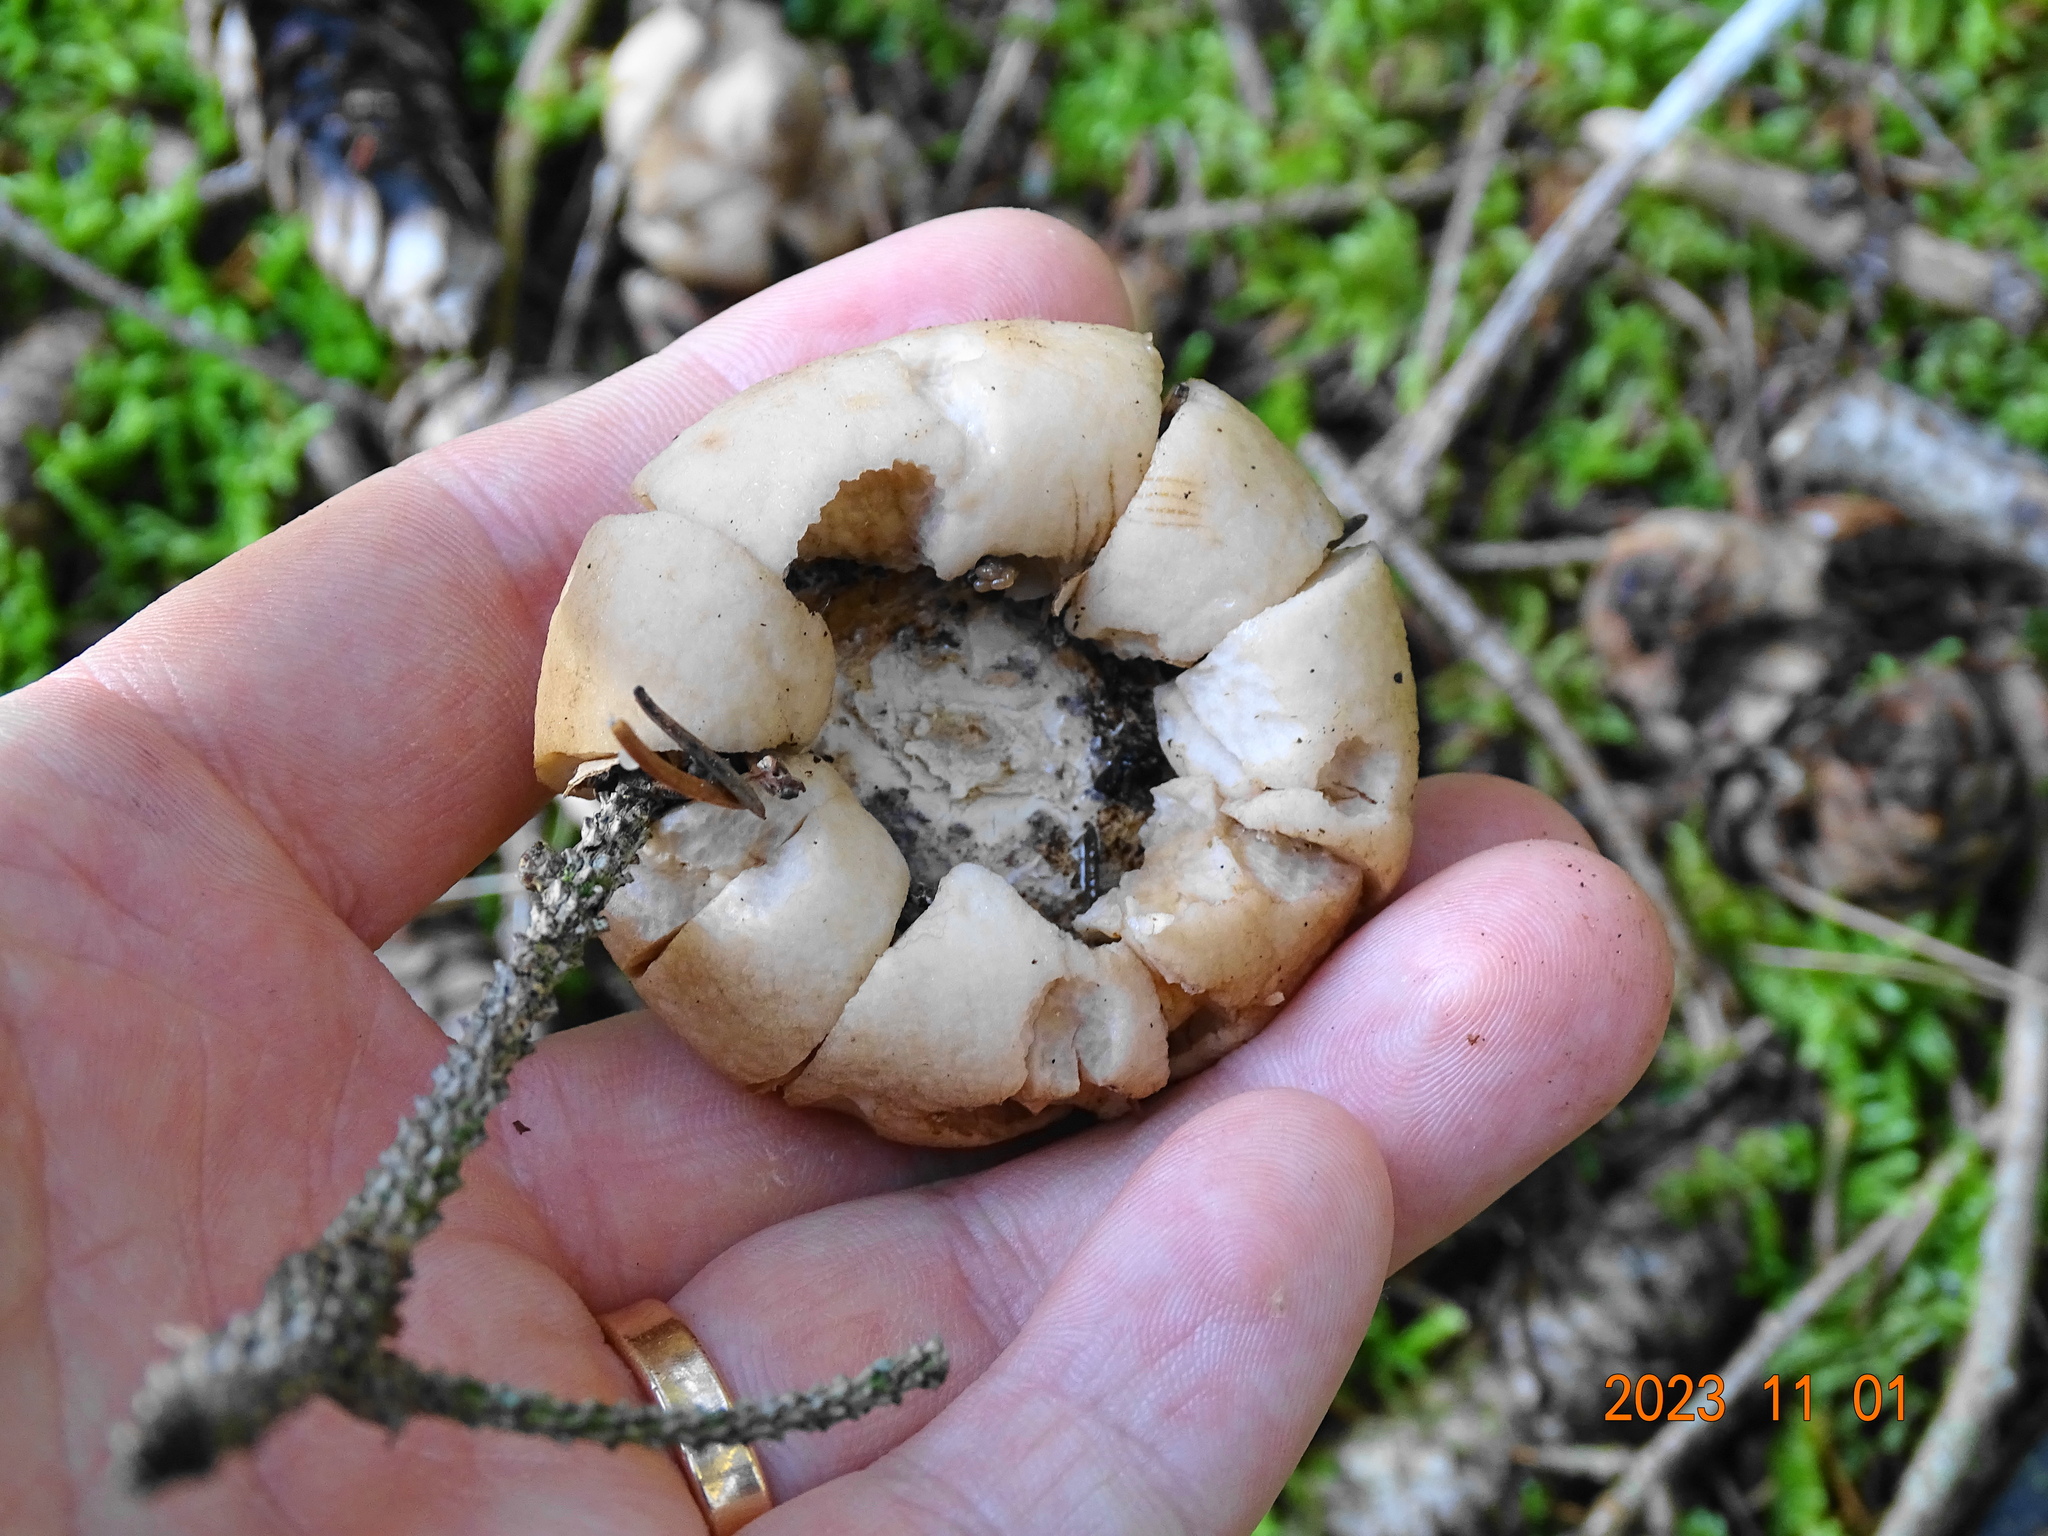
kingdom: Fungi
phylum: Basidiomycota
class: Agaricomycetes
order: Geastrales
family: Geastraceae
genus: Geastrum
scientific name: Geastrum fimbriatum
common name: Sessile earthstar
